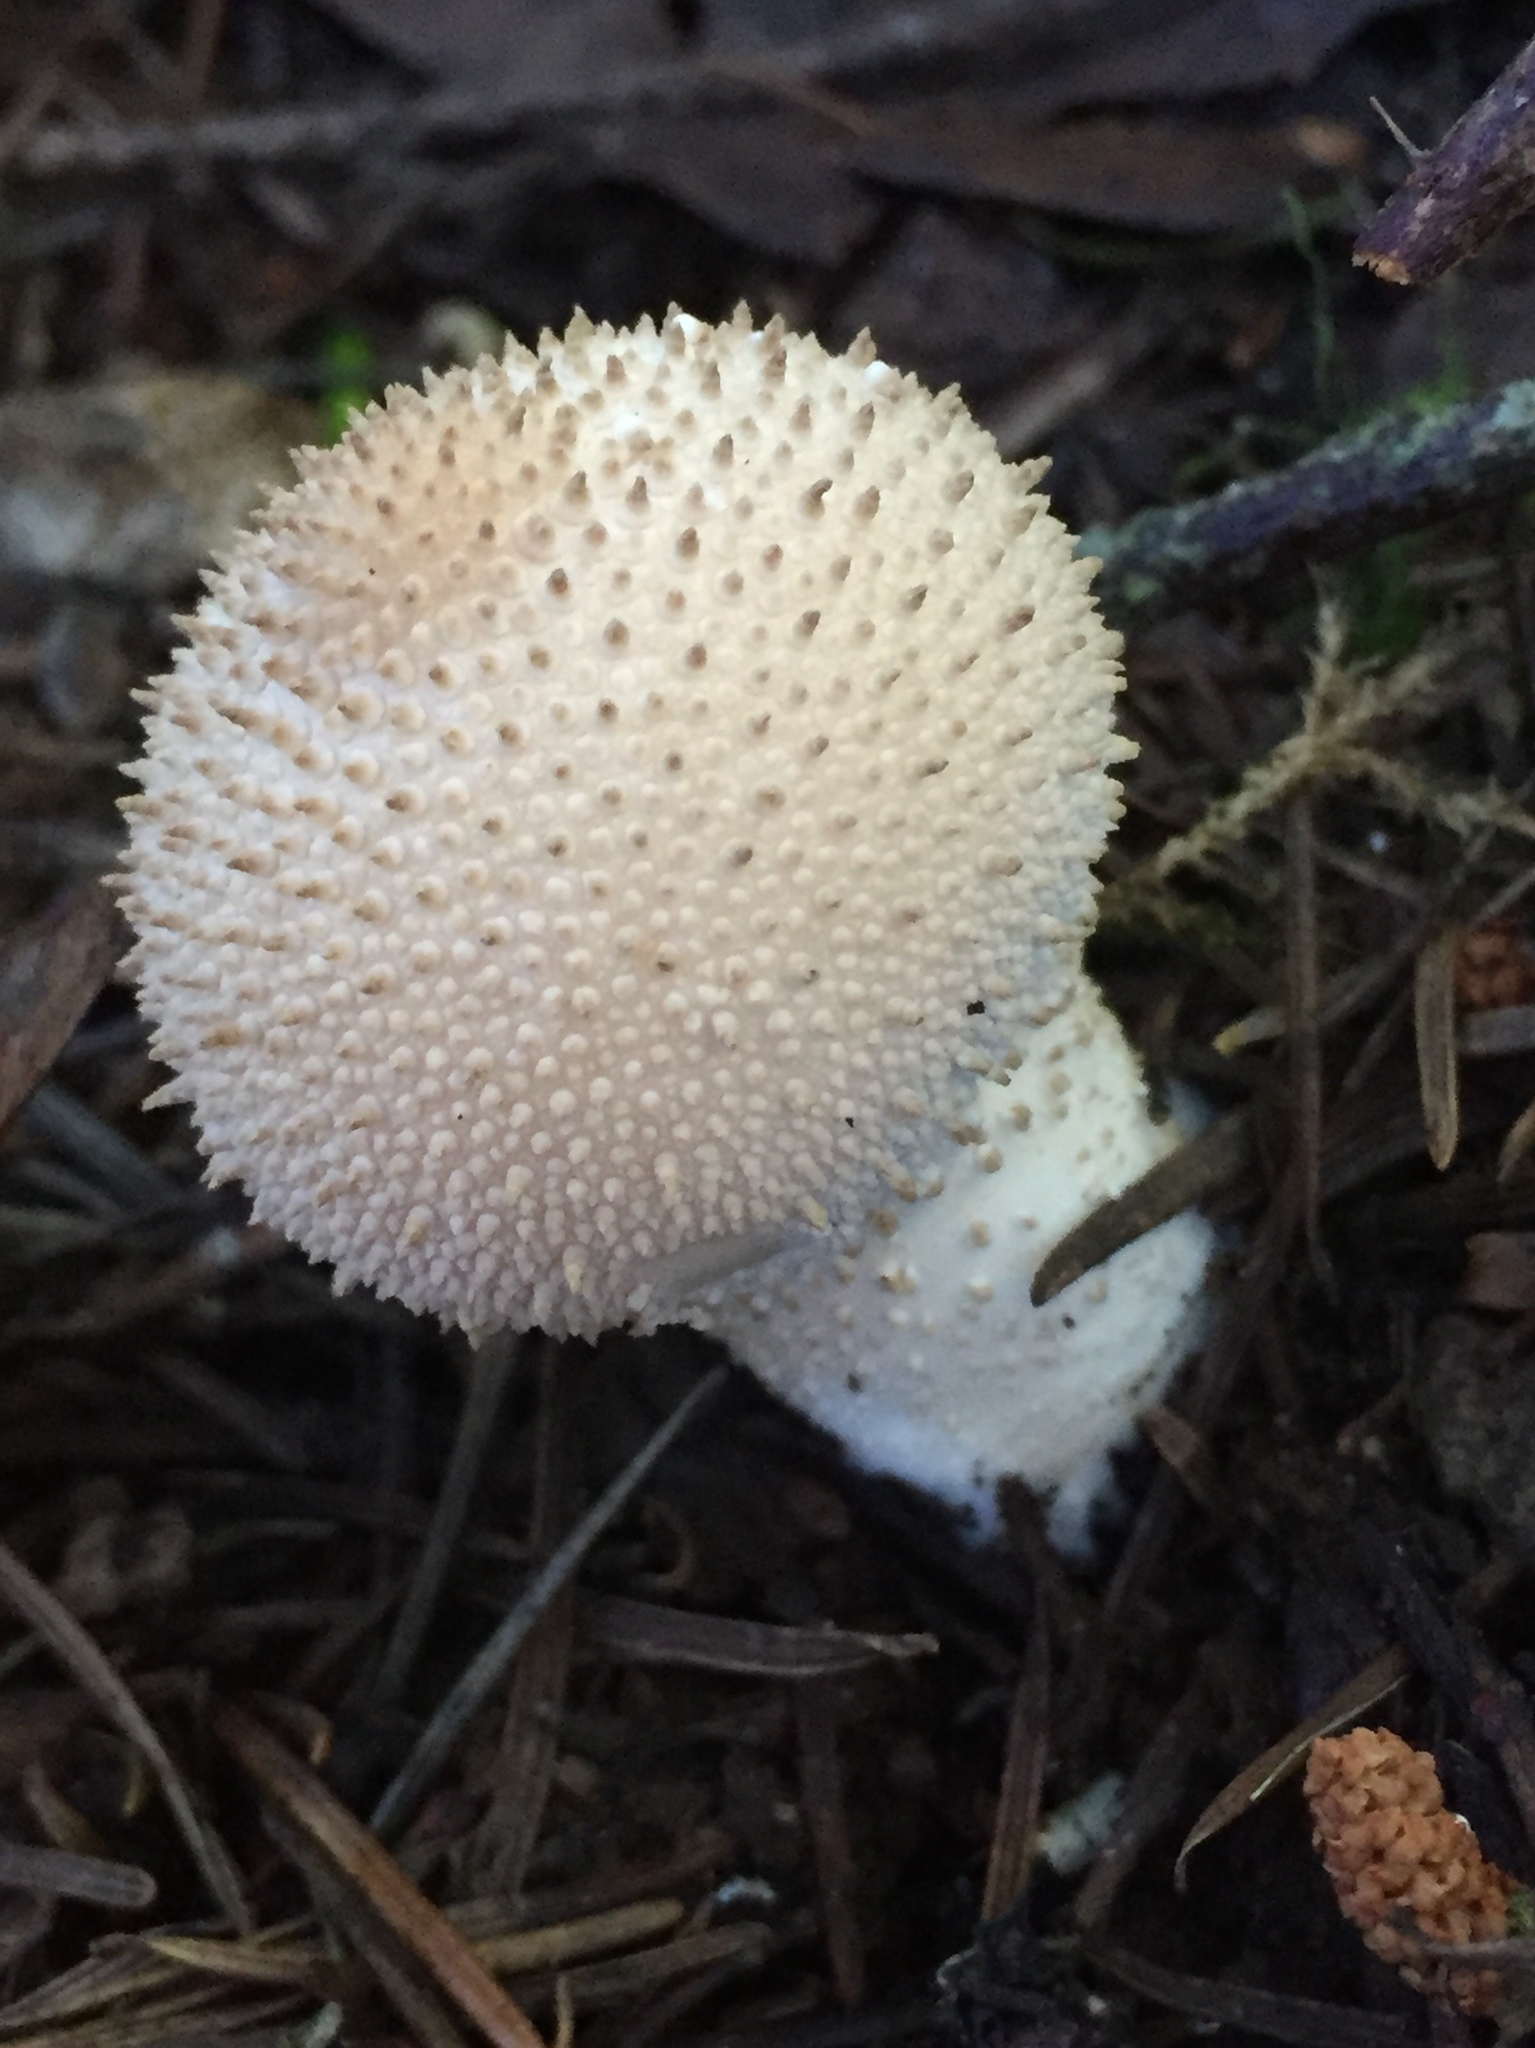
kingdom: Fungi
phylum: Basidiomycota
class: Agaricomycetes
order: Agaricales
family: Lycoperdaceae
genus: Lycoperdon
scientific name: Lycoperdon perlatum
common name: Common puffball
